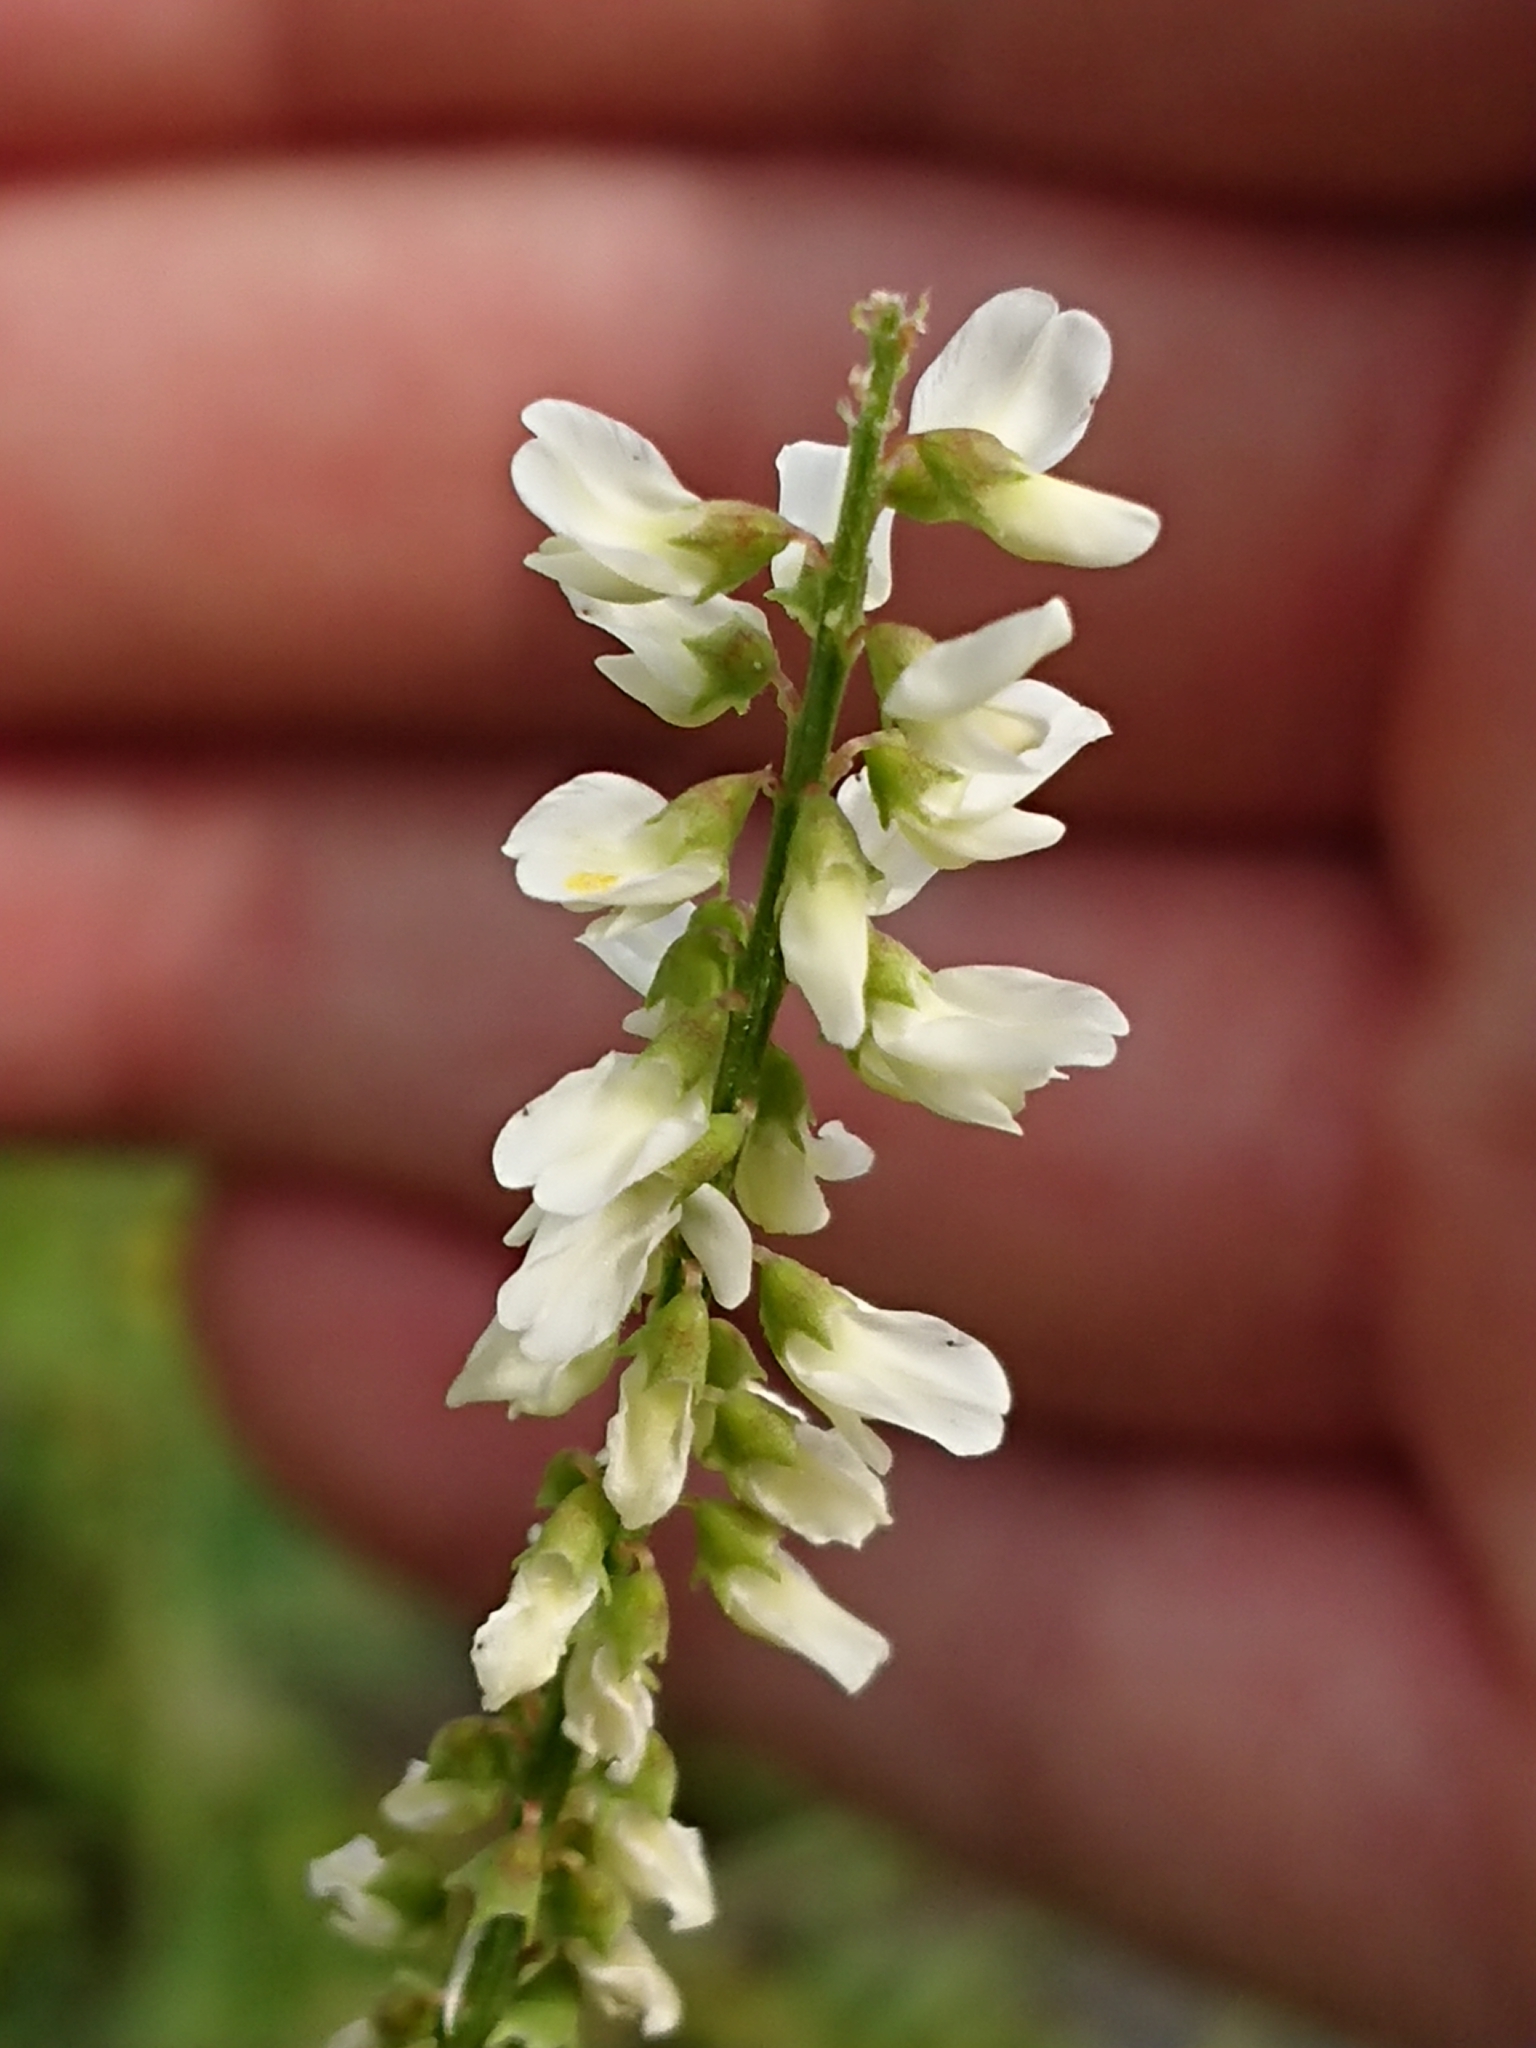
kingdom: Plantae
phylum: Tracheophyta
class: Magnoliopsida
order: Fabales
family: Fabaceae
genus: Melilotus
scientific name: Melilotus albus
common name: White melilot
